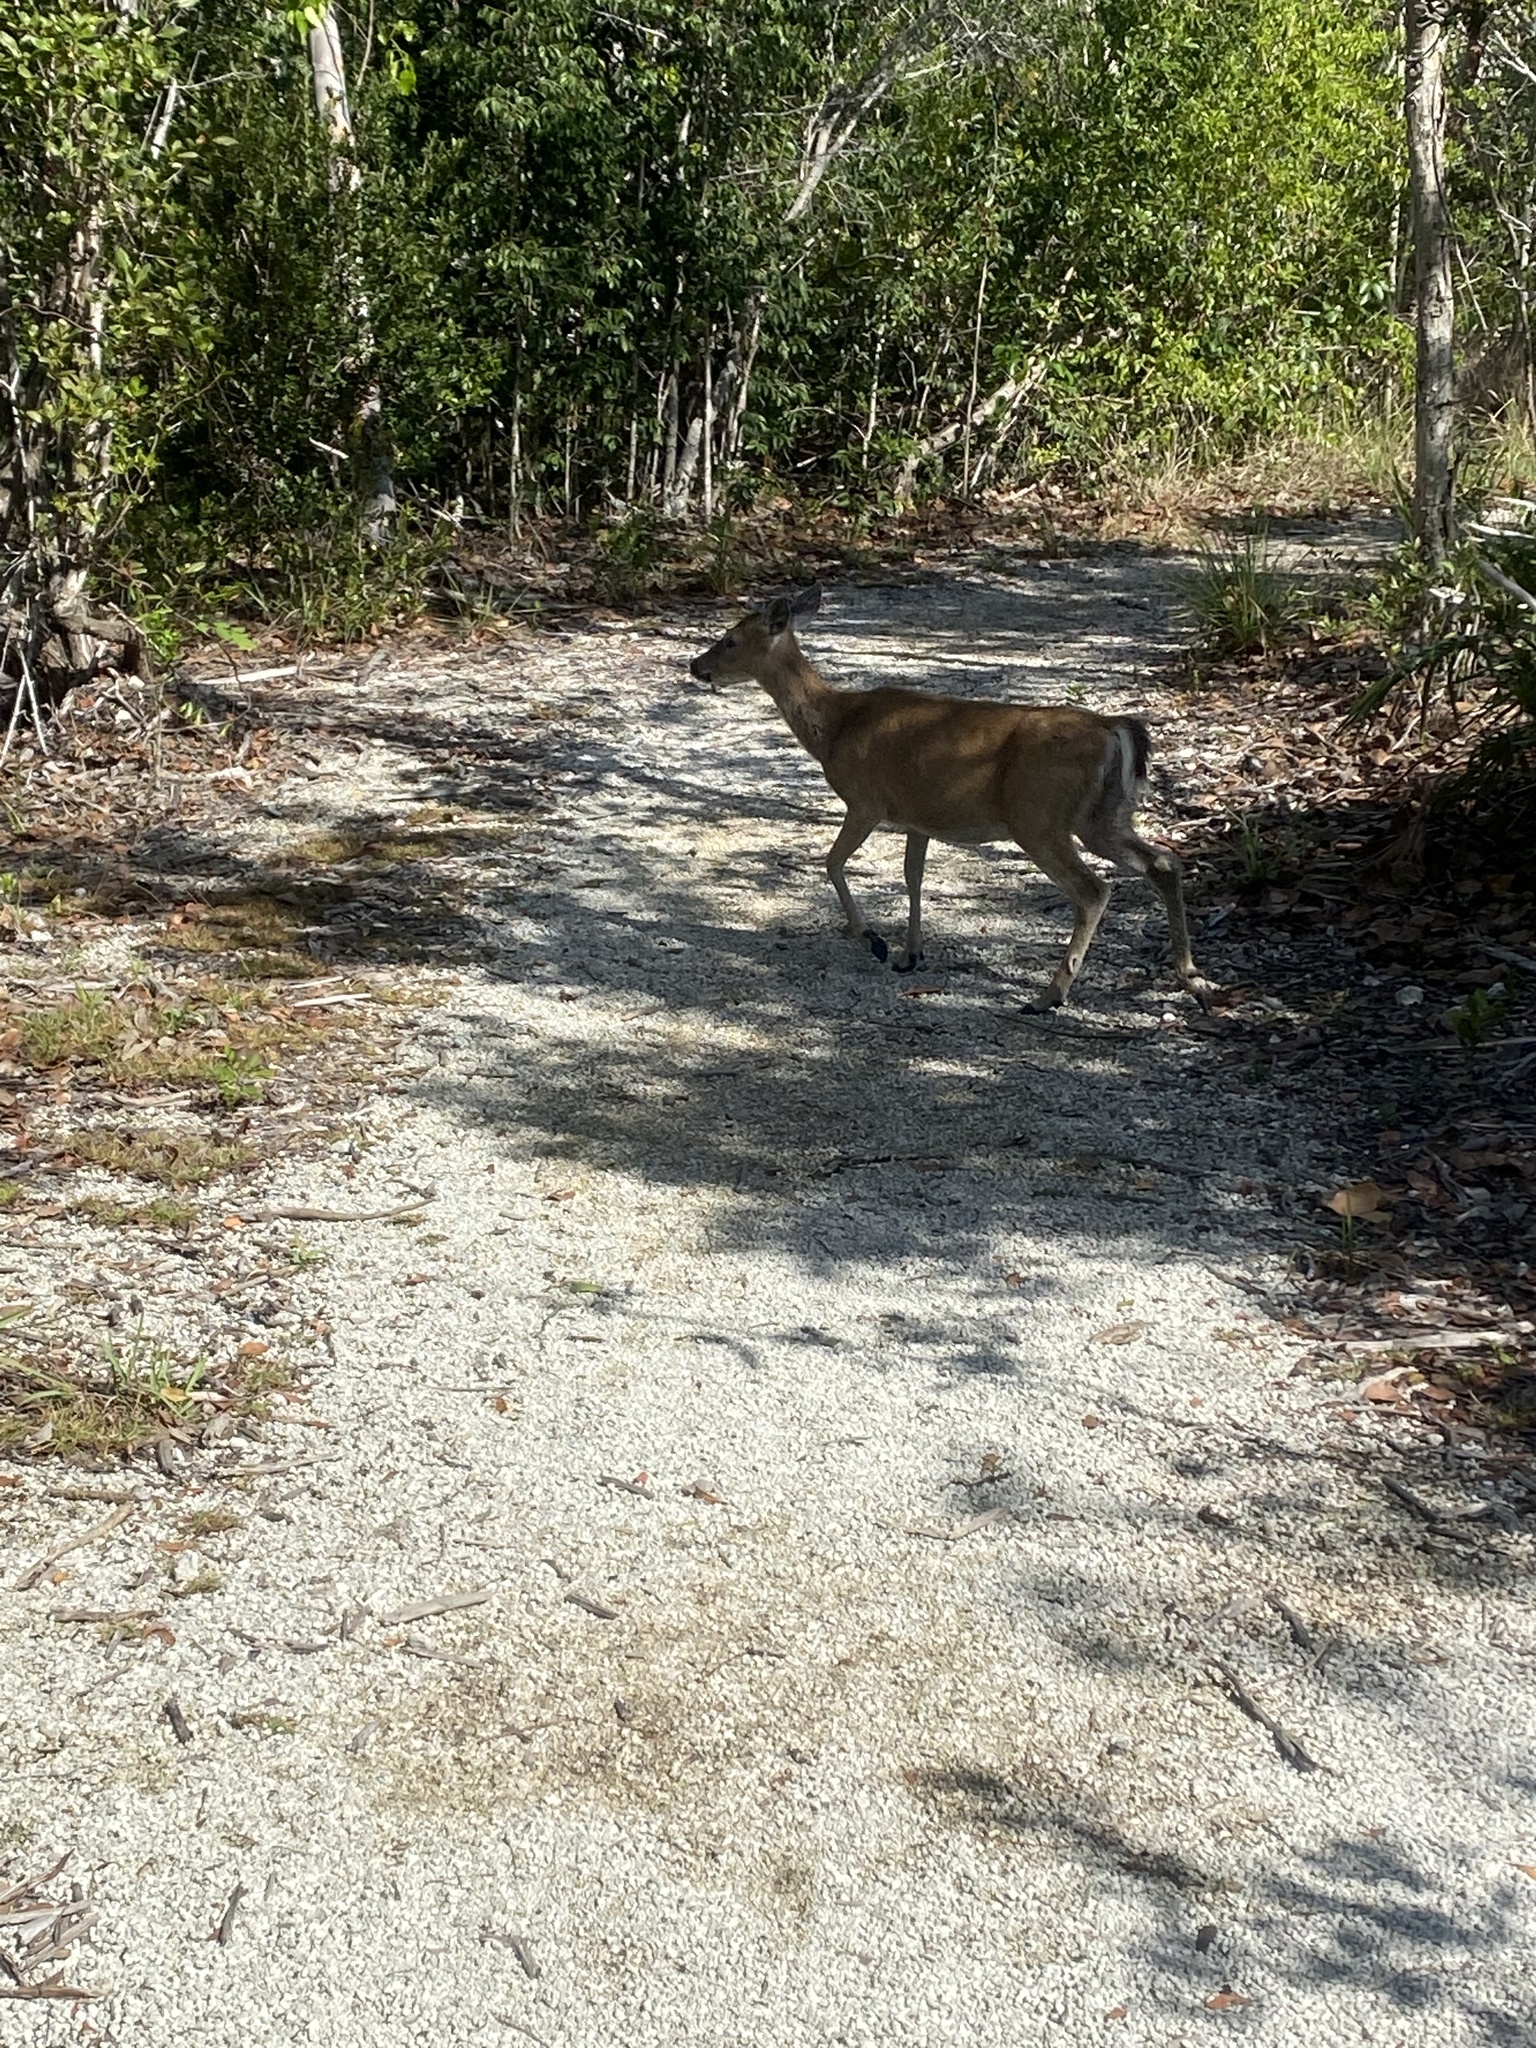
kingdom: Animalia
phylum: Chordata
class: Mammalia
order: Artiodactyla
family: Cervidae
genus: Odocoileus
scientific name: Odocoileus virginianus
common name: White-tailed deer
